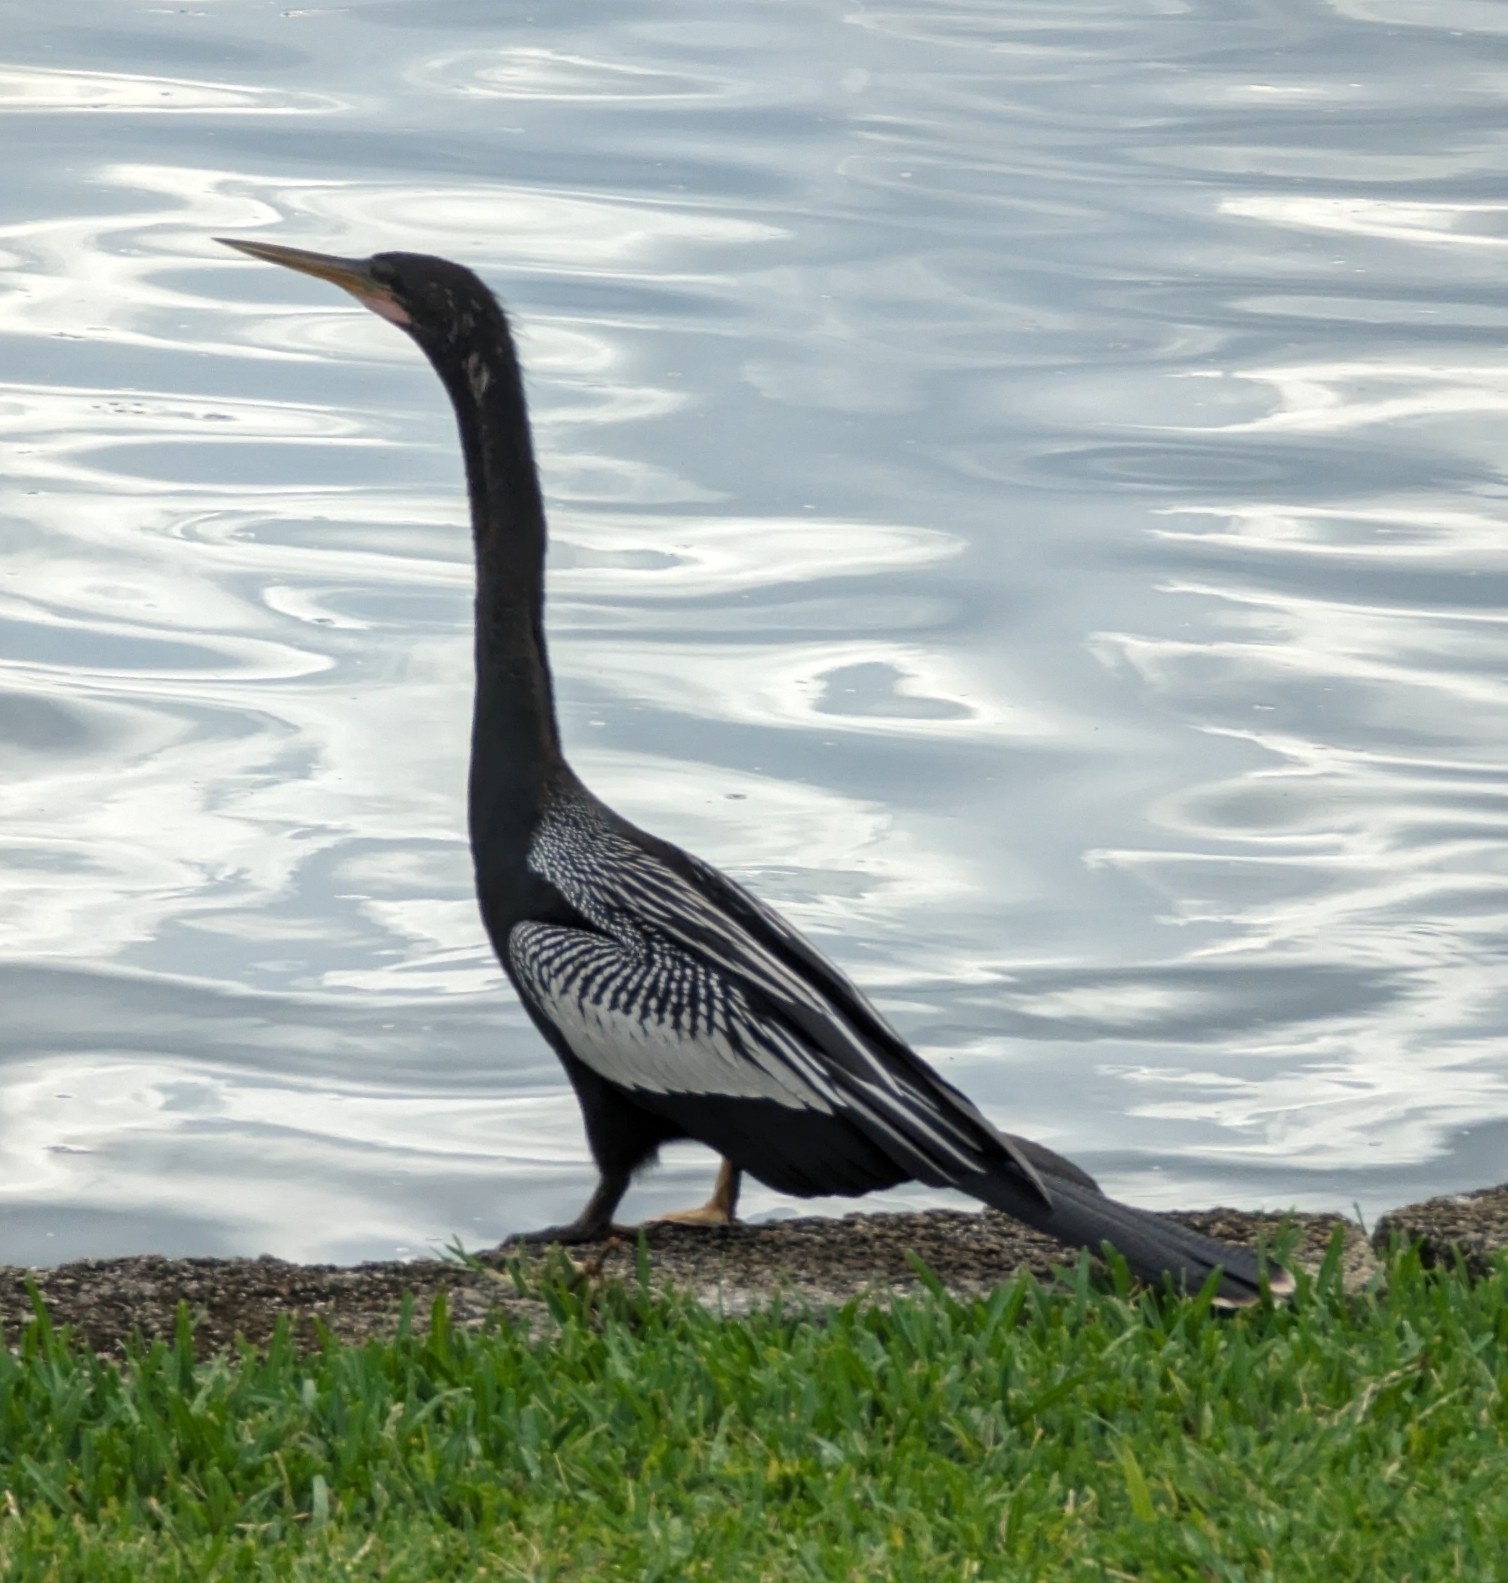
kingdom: Animalia
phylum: Chordata
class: Aves
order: Suliformes
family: Anhingidae
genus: Anhinga
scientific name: Anhinga anhinga
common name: Anhinga
